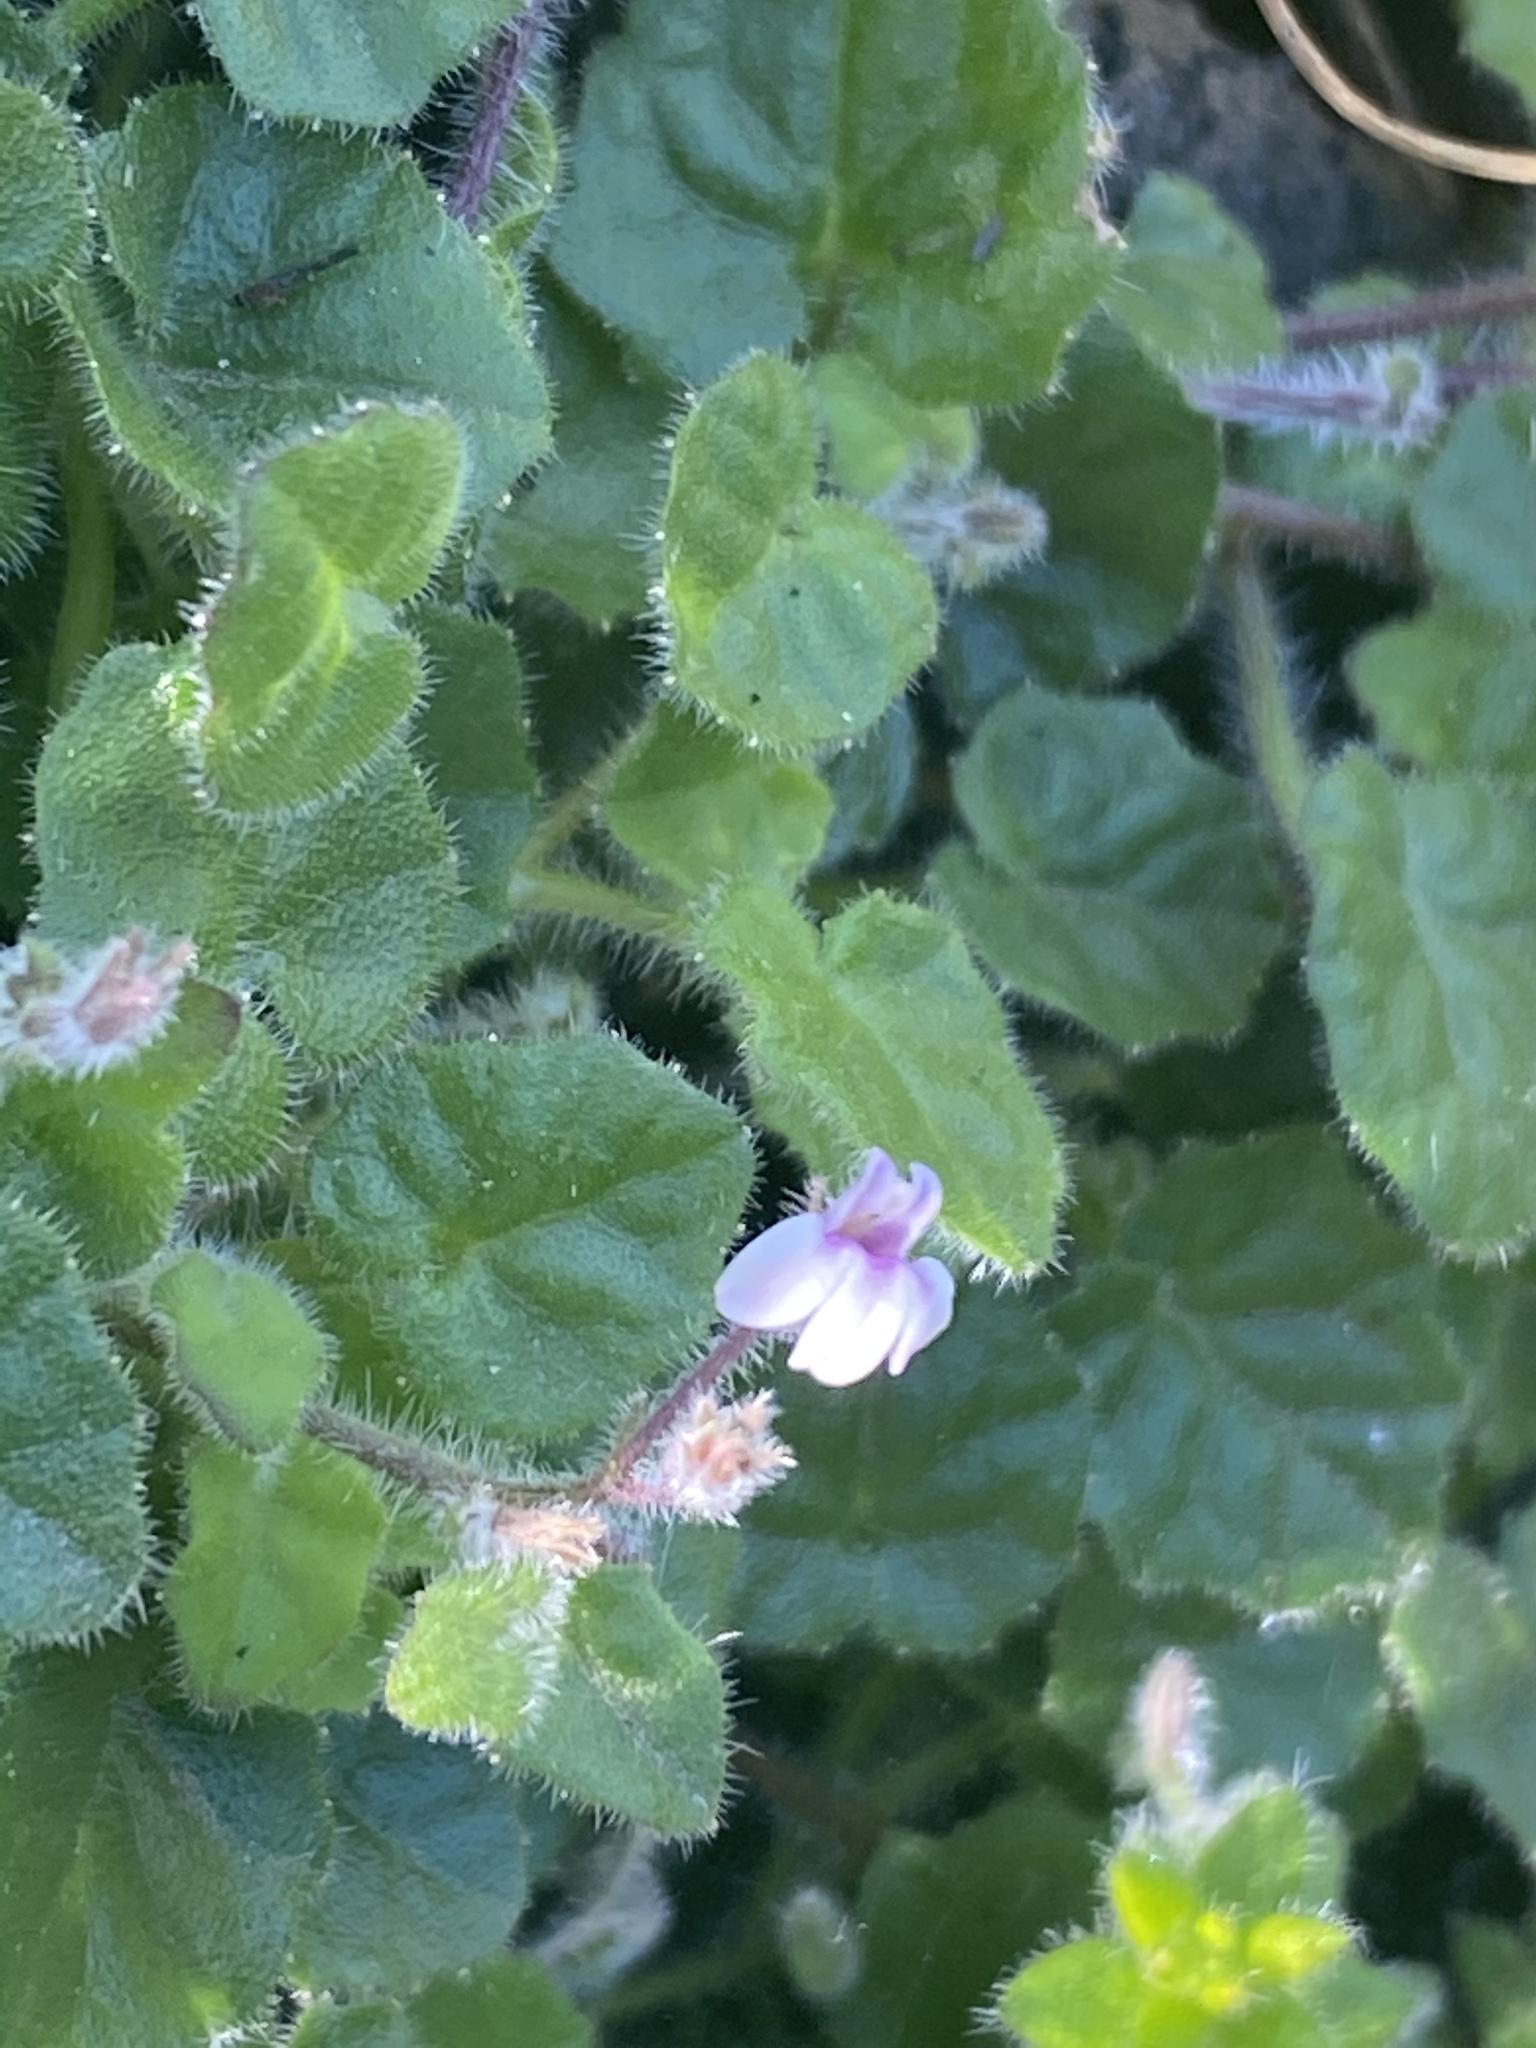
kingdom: Plantae
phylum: Tracheophyta
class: Magnoliopsida
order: Asterales
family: Campanulaceae
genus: Lobelia
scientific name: Lobelia ardisiandroides
